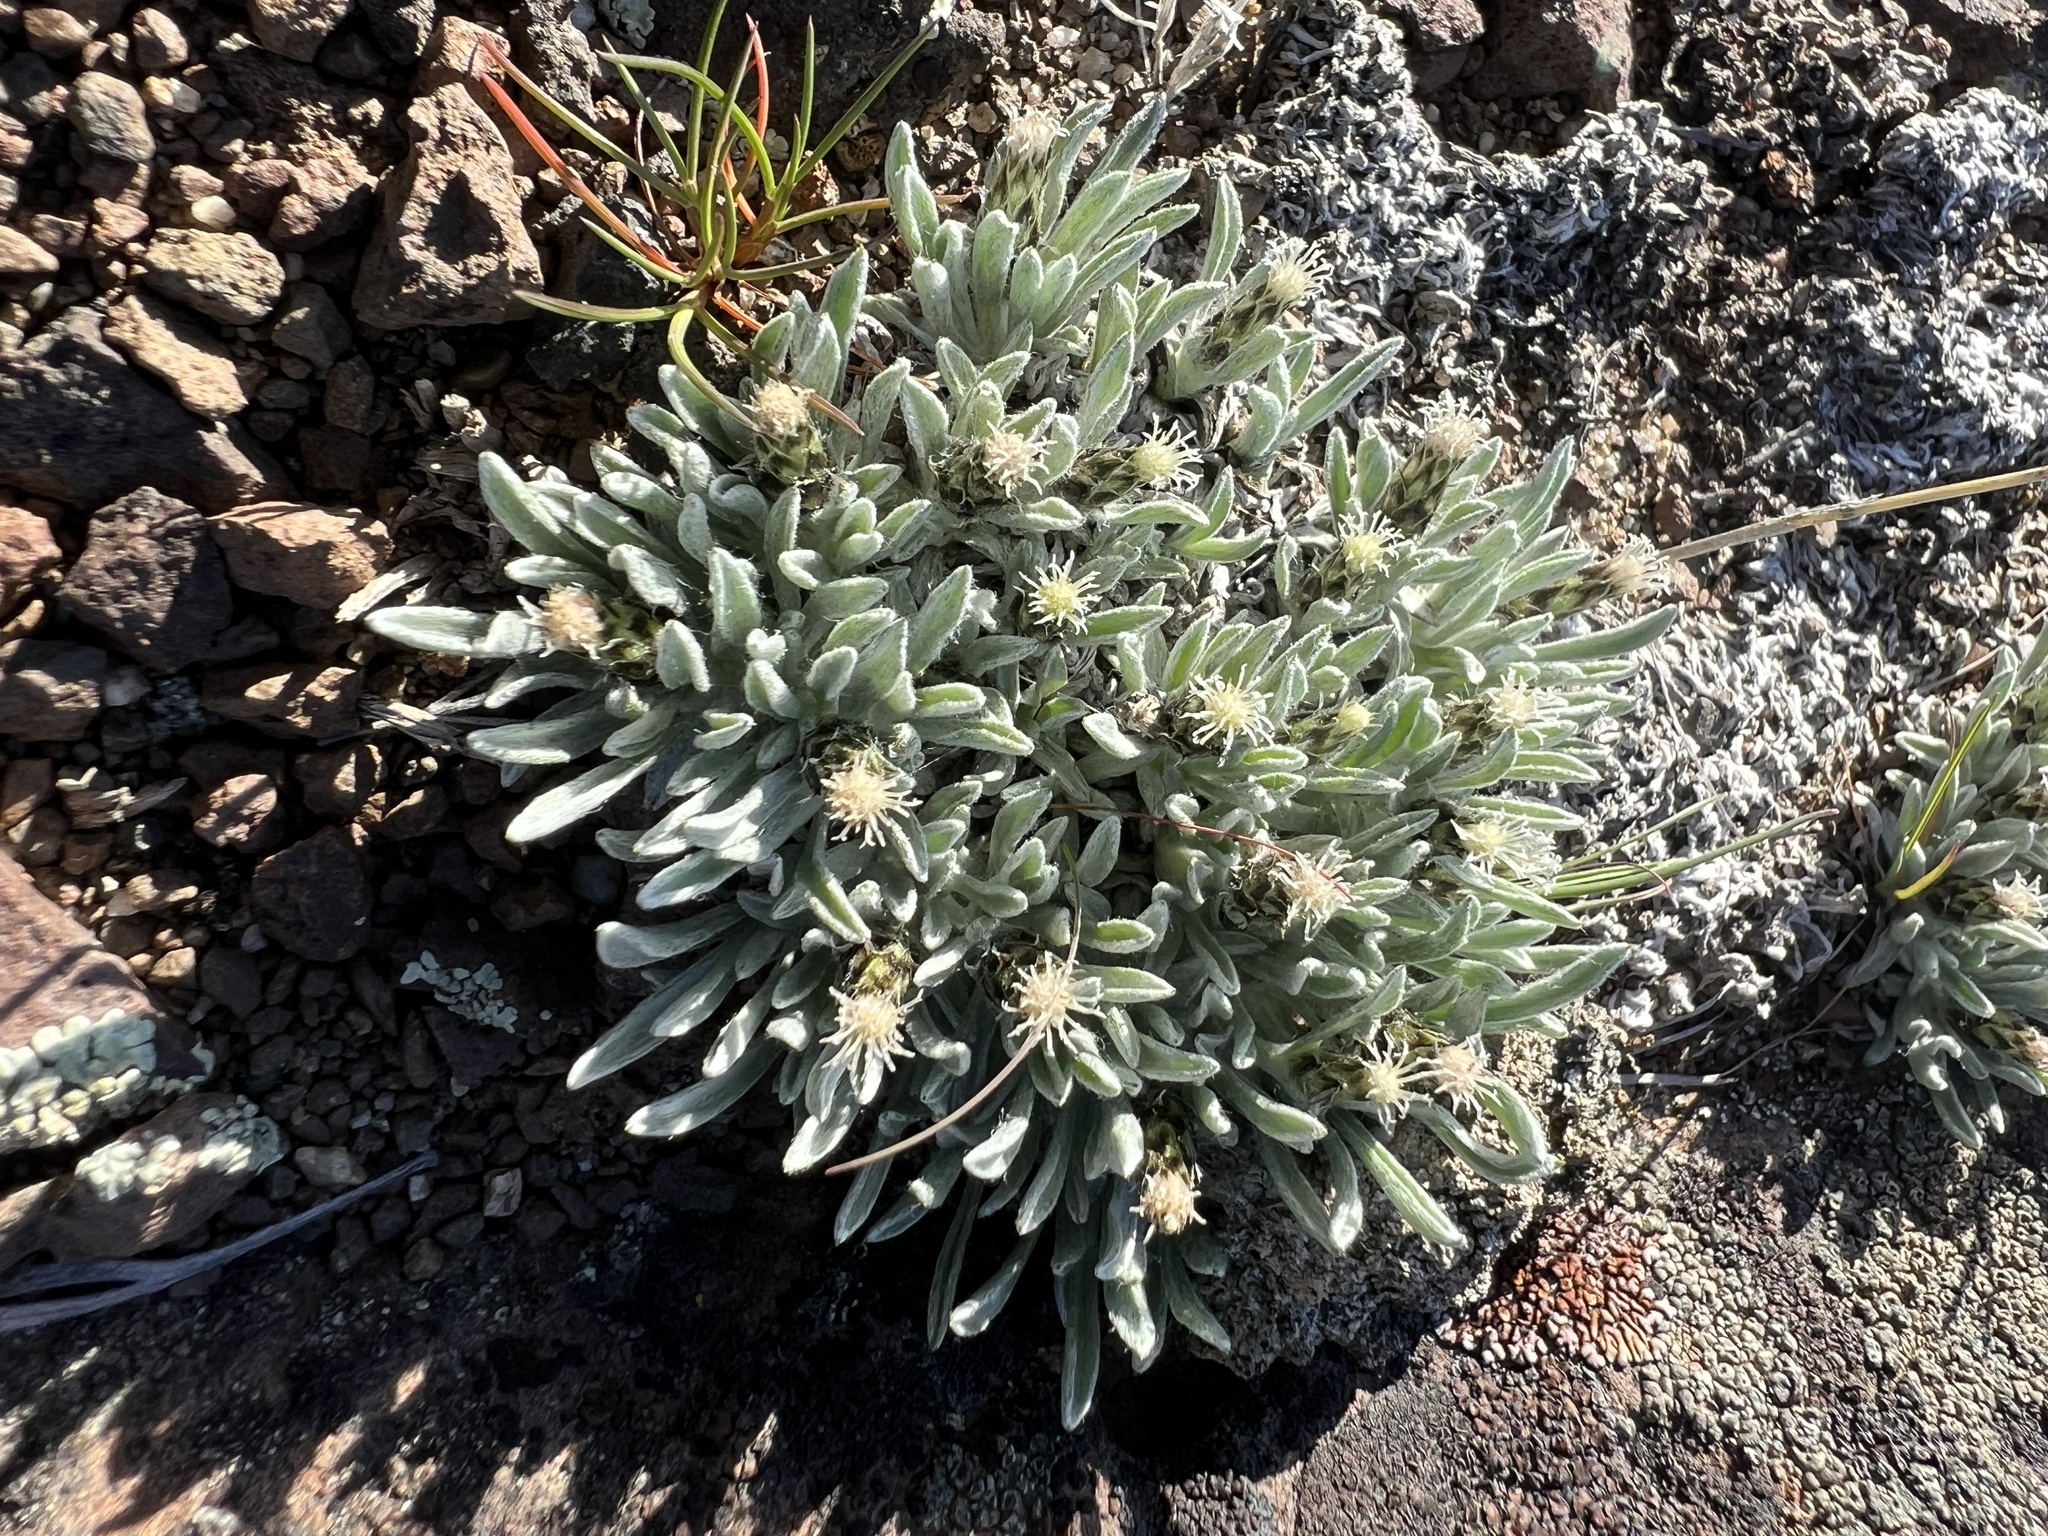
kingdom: Plantae
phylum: Tracheophyta
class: Magnoliopsida
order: Asterales
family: Asteraceae
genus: Antennaria
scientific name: Antennaria dimorpha
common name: Cushion pussytoes
